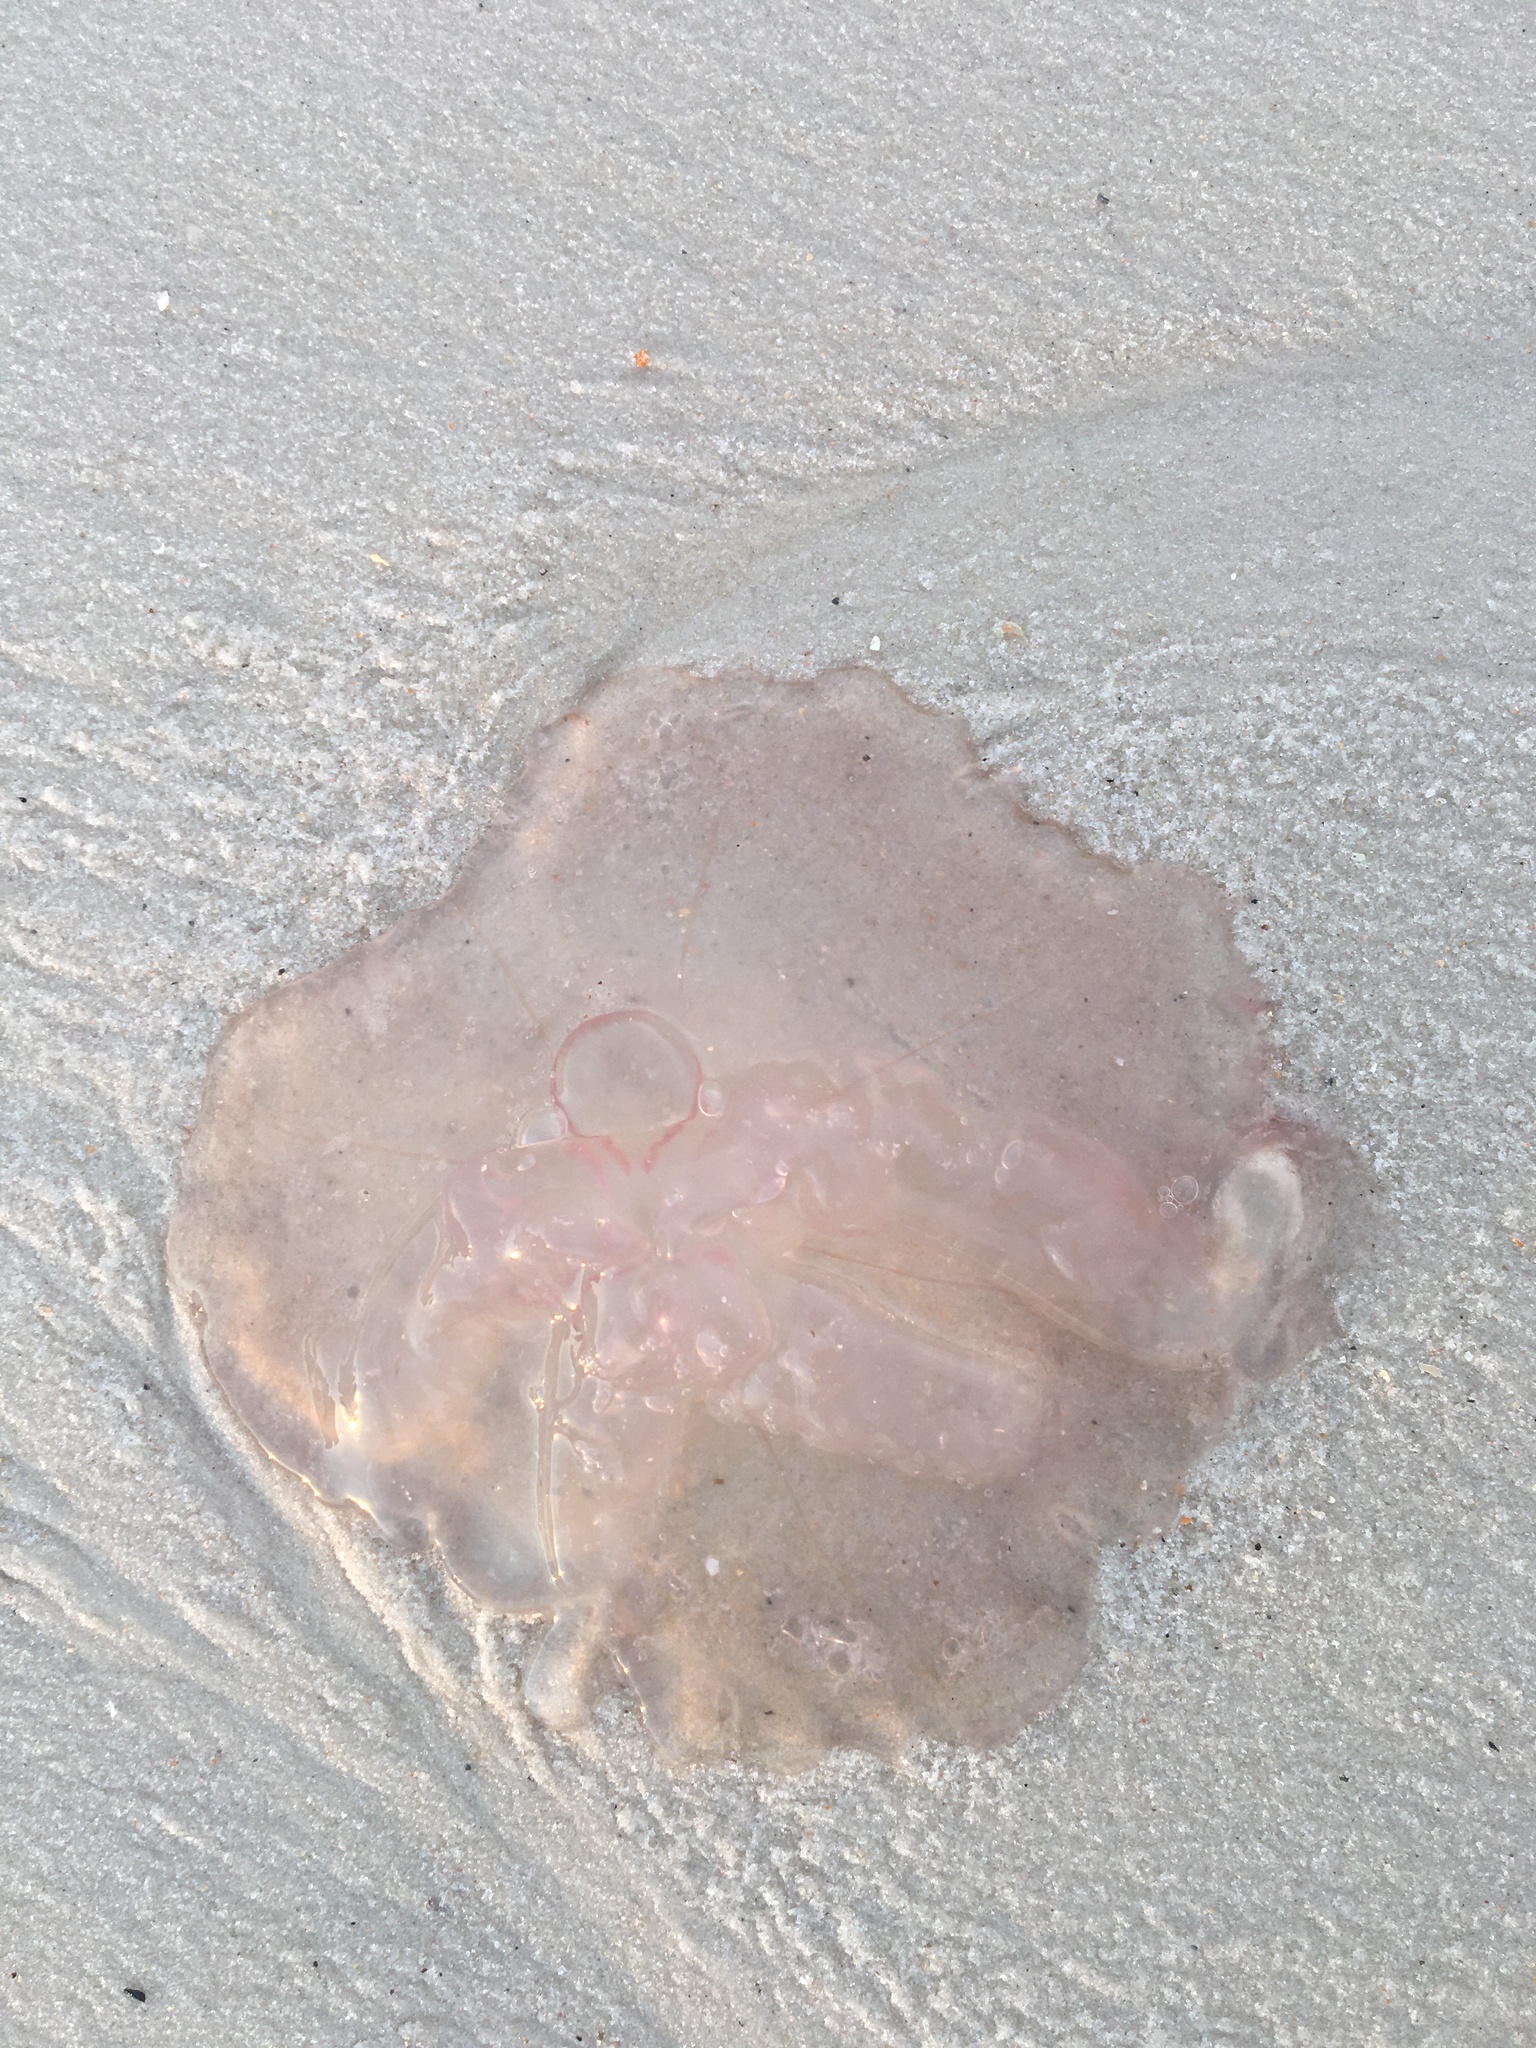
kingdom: Animalia
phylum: Cnidaria
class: Scyphozoa
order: Semaeostomeae
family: Ulmaridae
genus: Aurelia
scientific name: Aurelia marginalis
